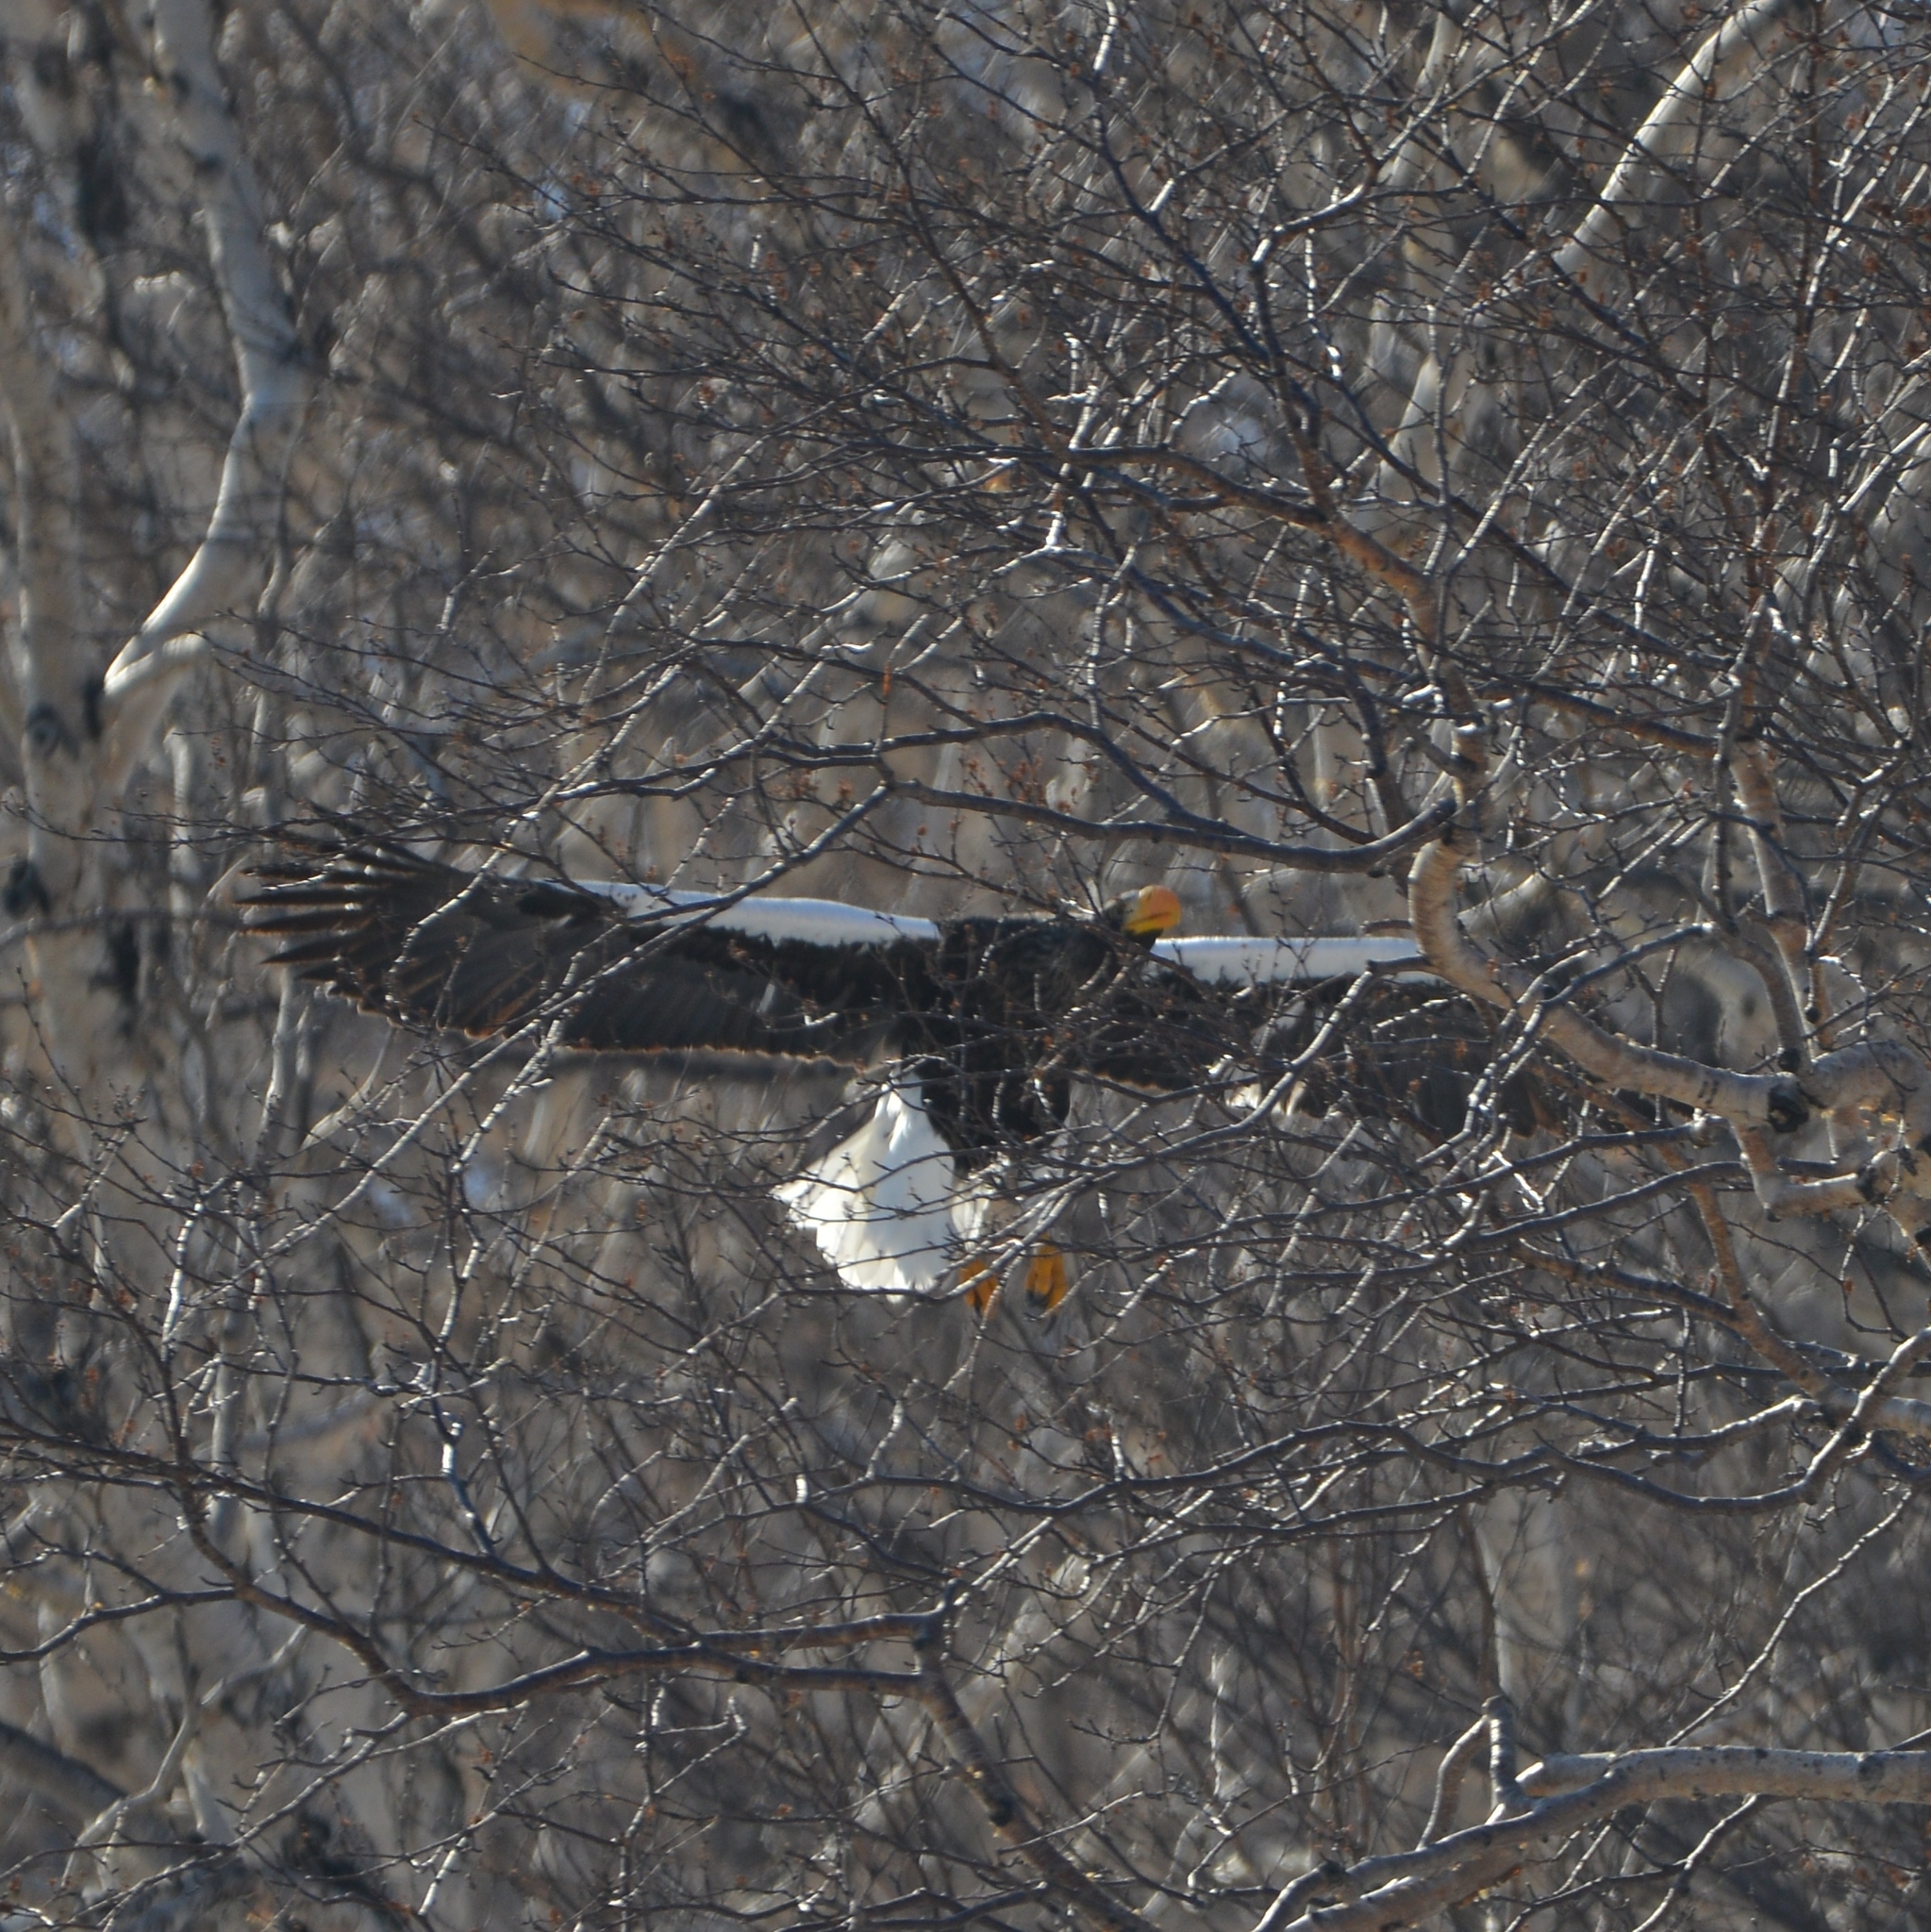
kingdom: Animalia
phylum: Chordata
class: Aves
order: Accipitriformes
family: Accipitridae
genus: Haliaeetus
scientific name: Haliaeetus pelagicus
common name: Steller's sea eagle
